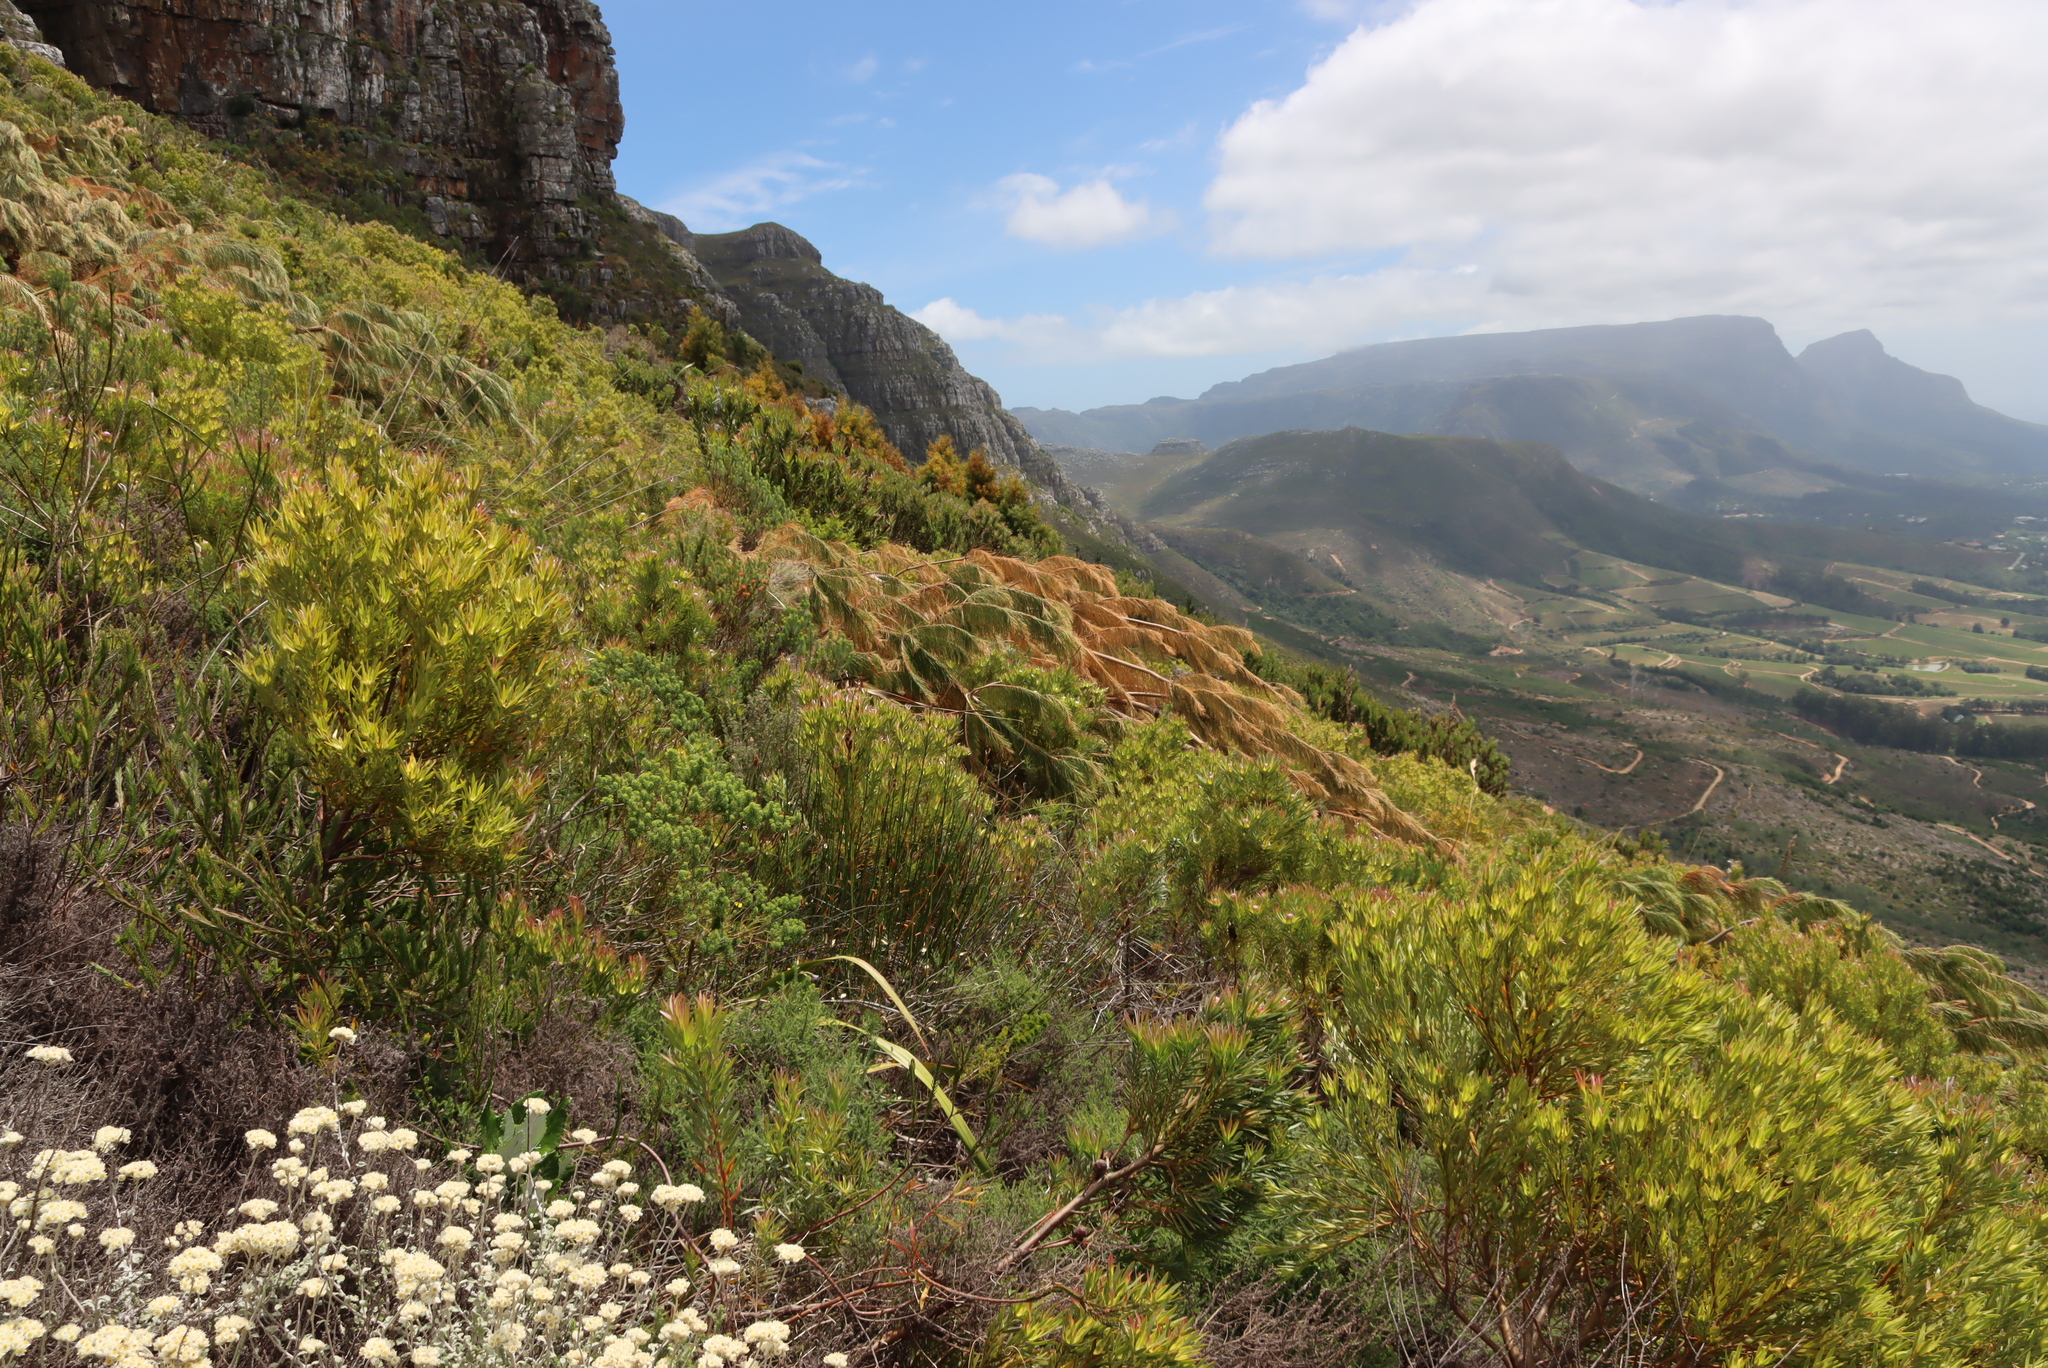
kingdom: Plantae
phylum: Tracheophyta
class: Magnoliopsida
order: Proteales
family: Proteaceae
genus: Leucadendron
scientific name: Leucadendron xanthoconus
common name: Sickle-leaf conebush
